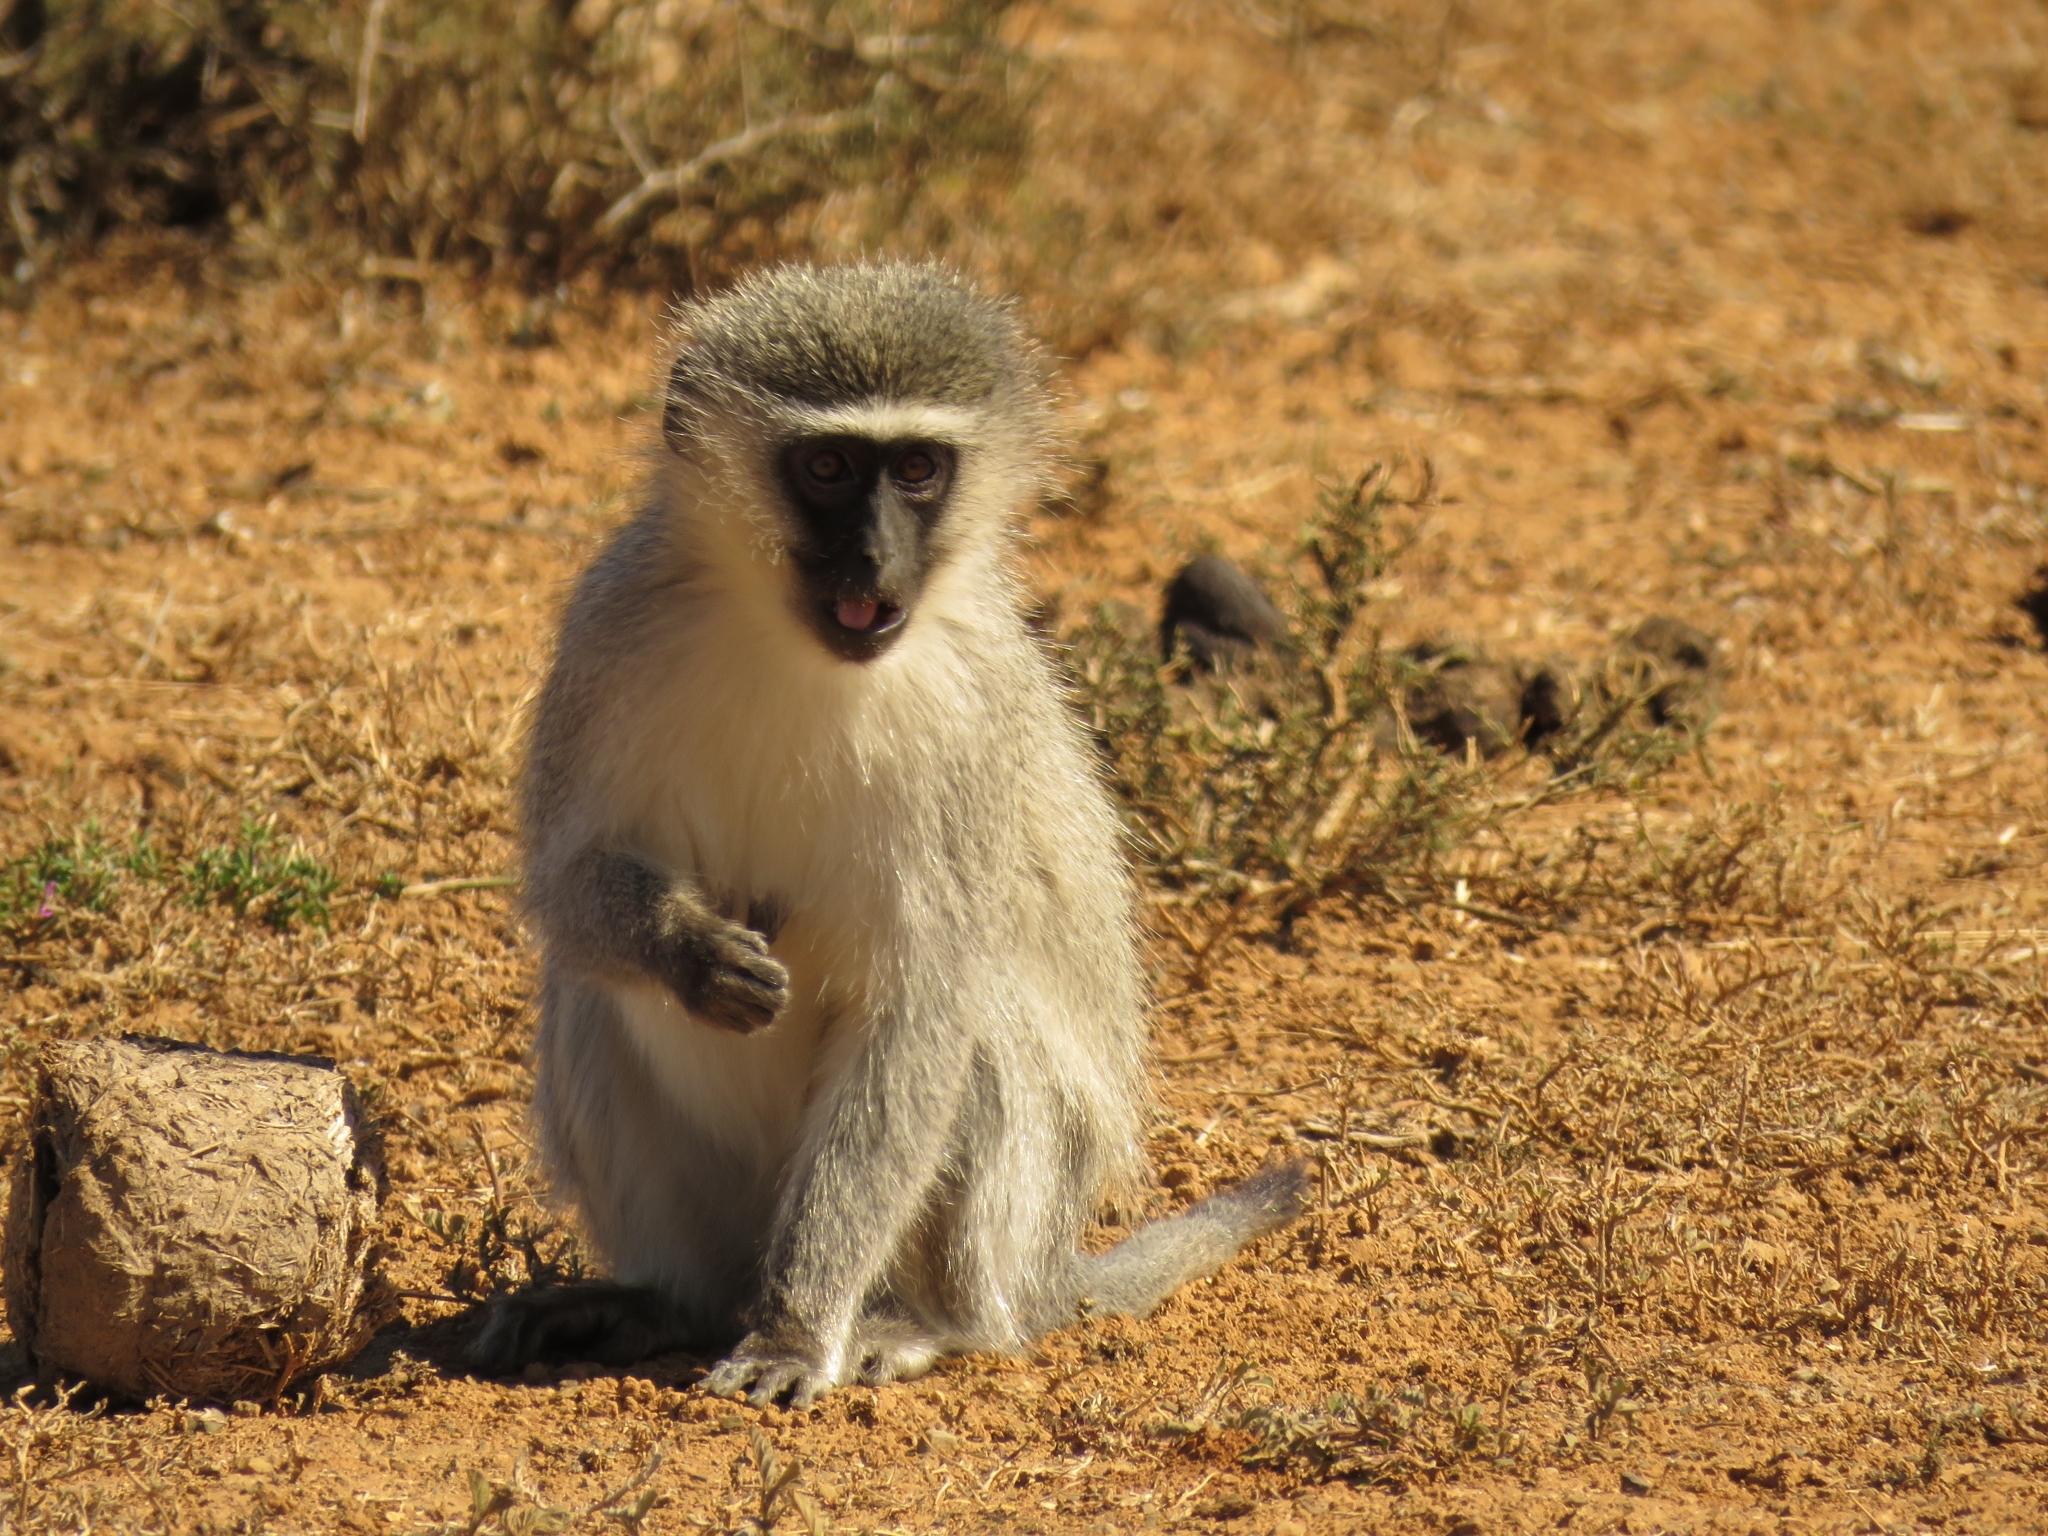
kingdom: Animalia
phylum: Chordata
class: Mammalia
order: Primates
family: Cercopithecidae
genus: Chlorocebus
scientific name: Chlorocebus pygerythrus
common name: Vervet monkey
